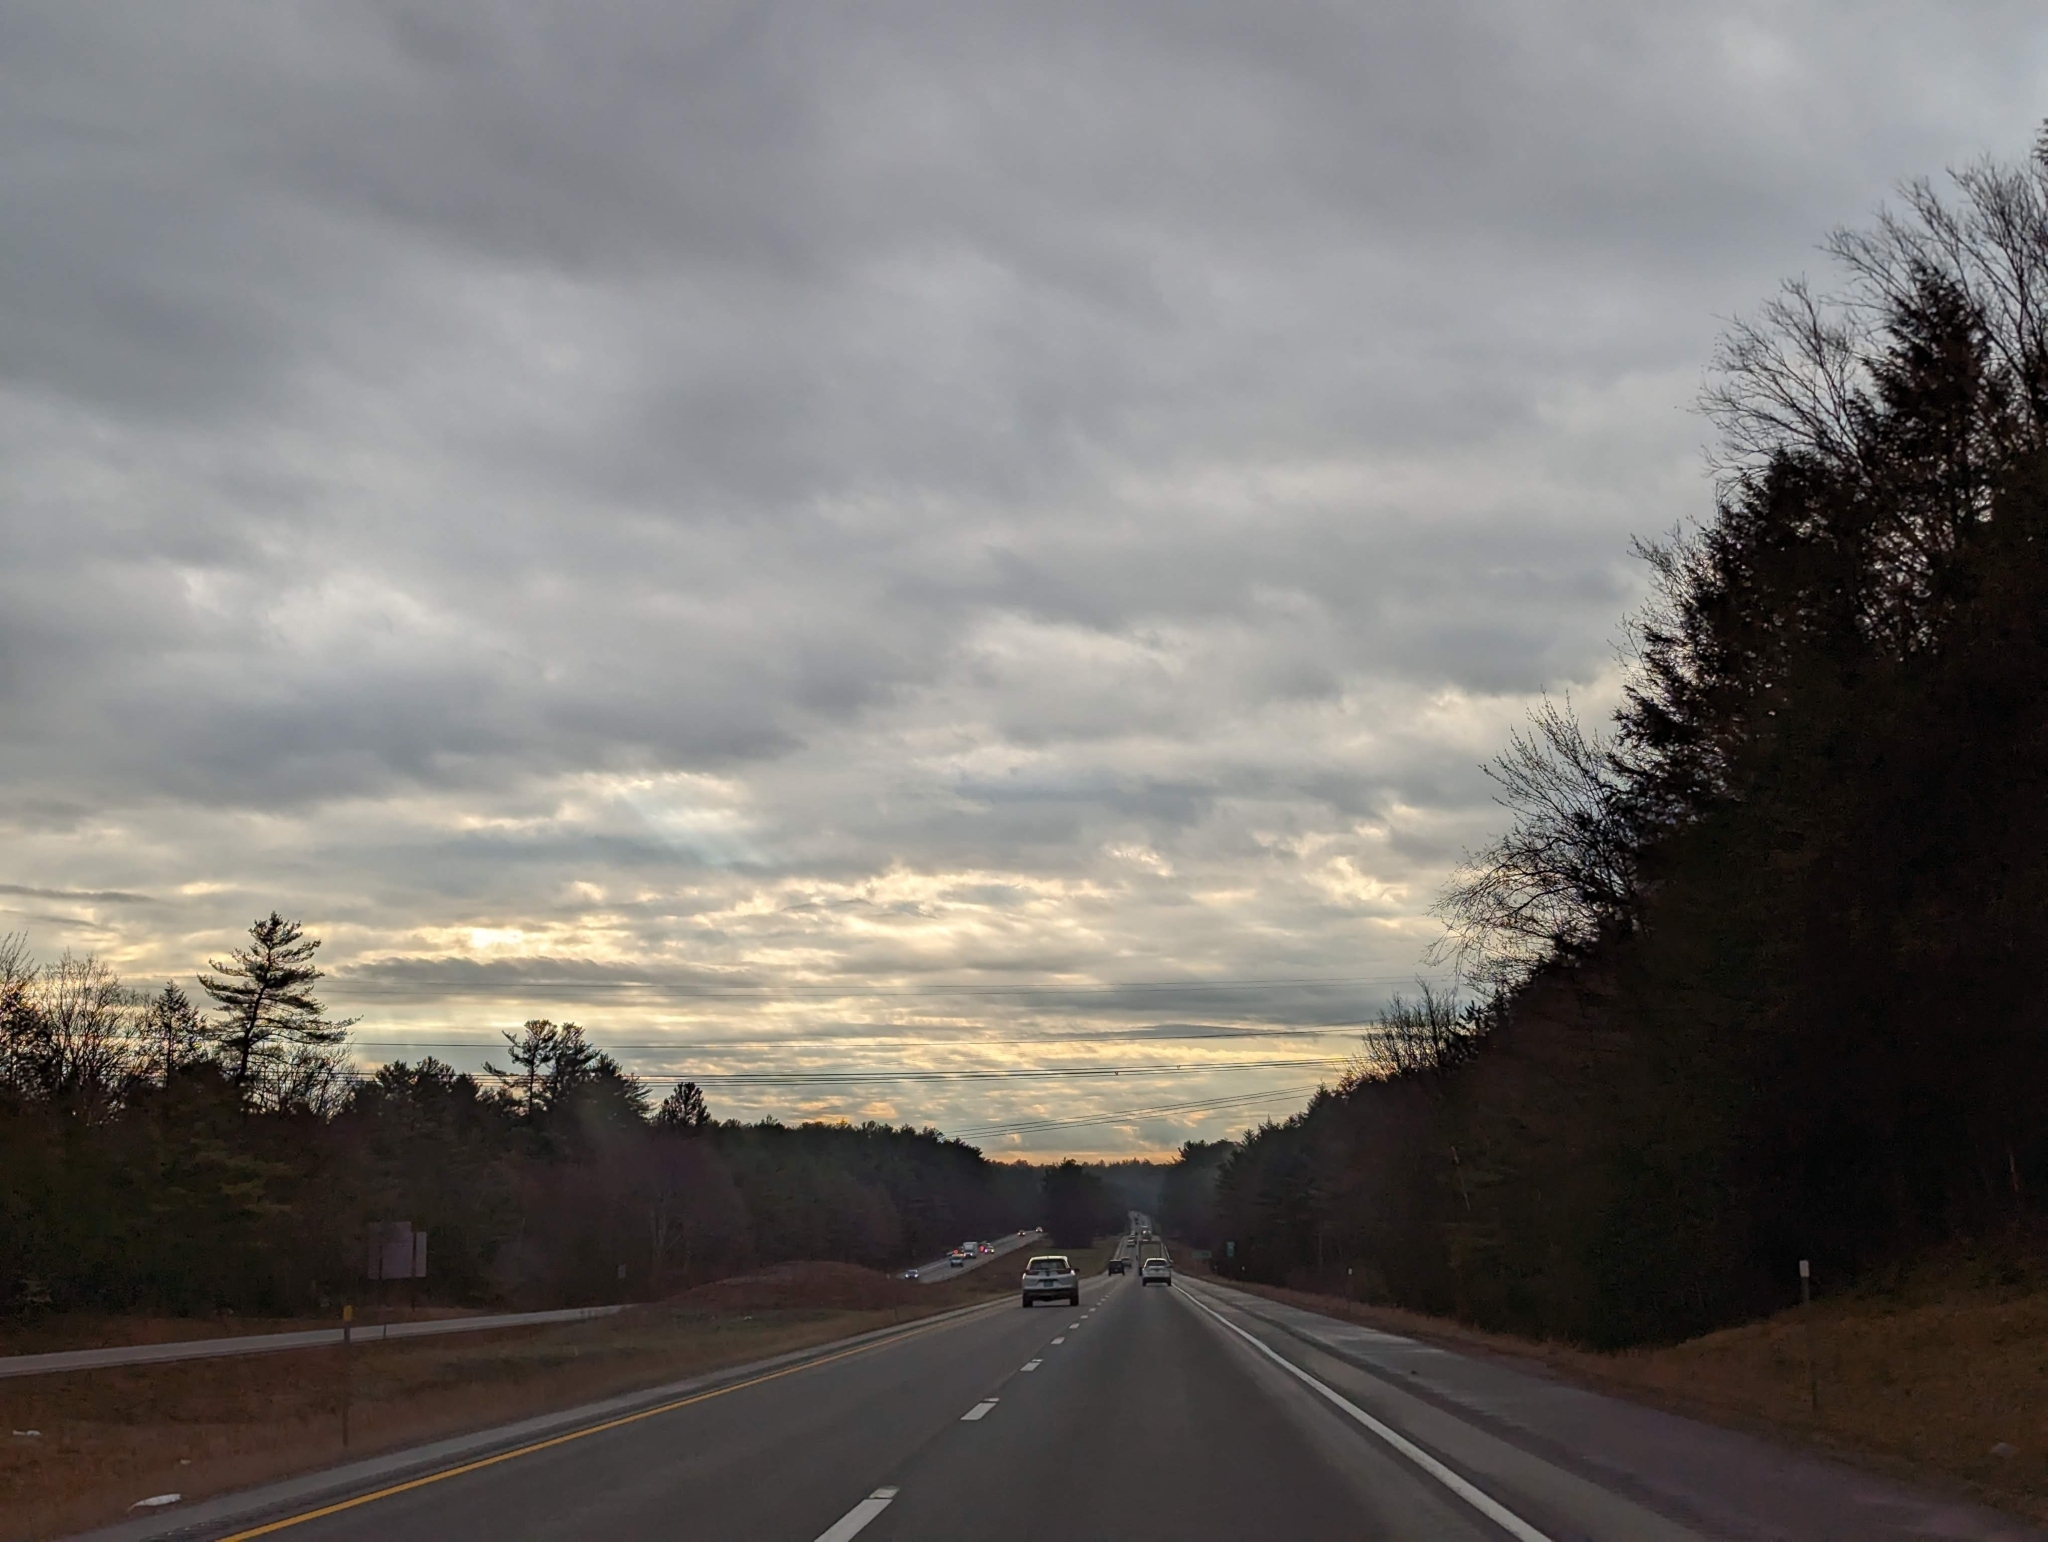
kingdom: Plantae
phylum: Tracheophyta
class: Pinopsida
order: Pinales
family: Pinaceae
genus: Pinus
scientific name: Pinus strobus
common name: Weymouth pine
